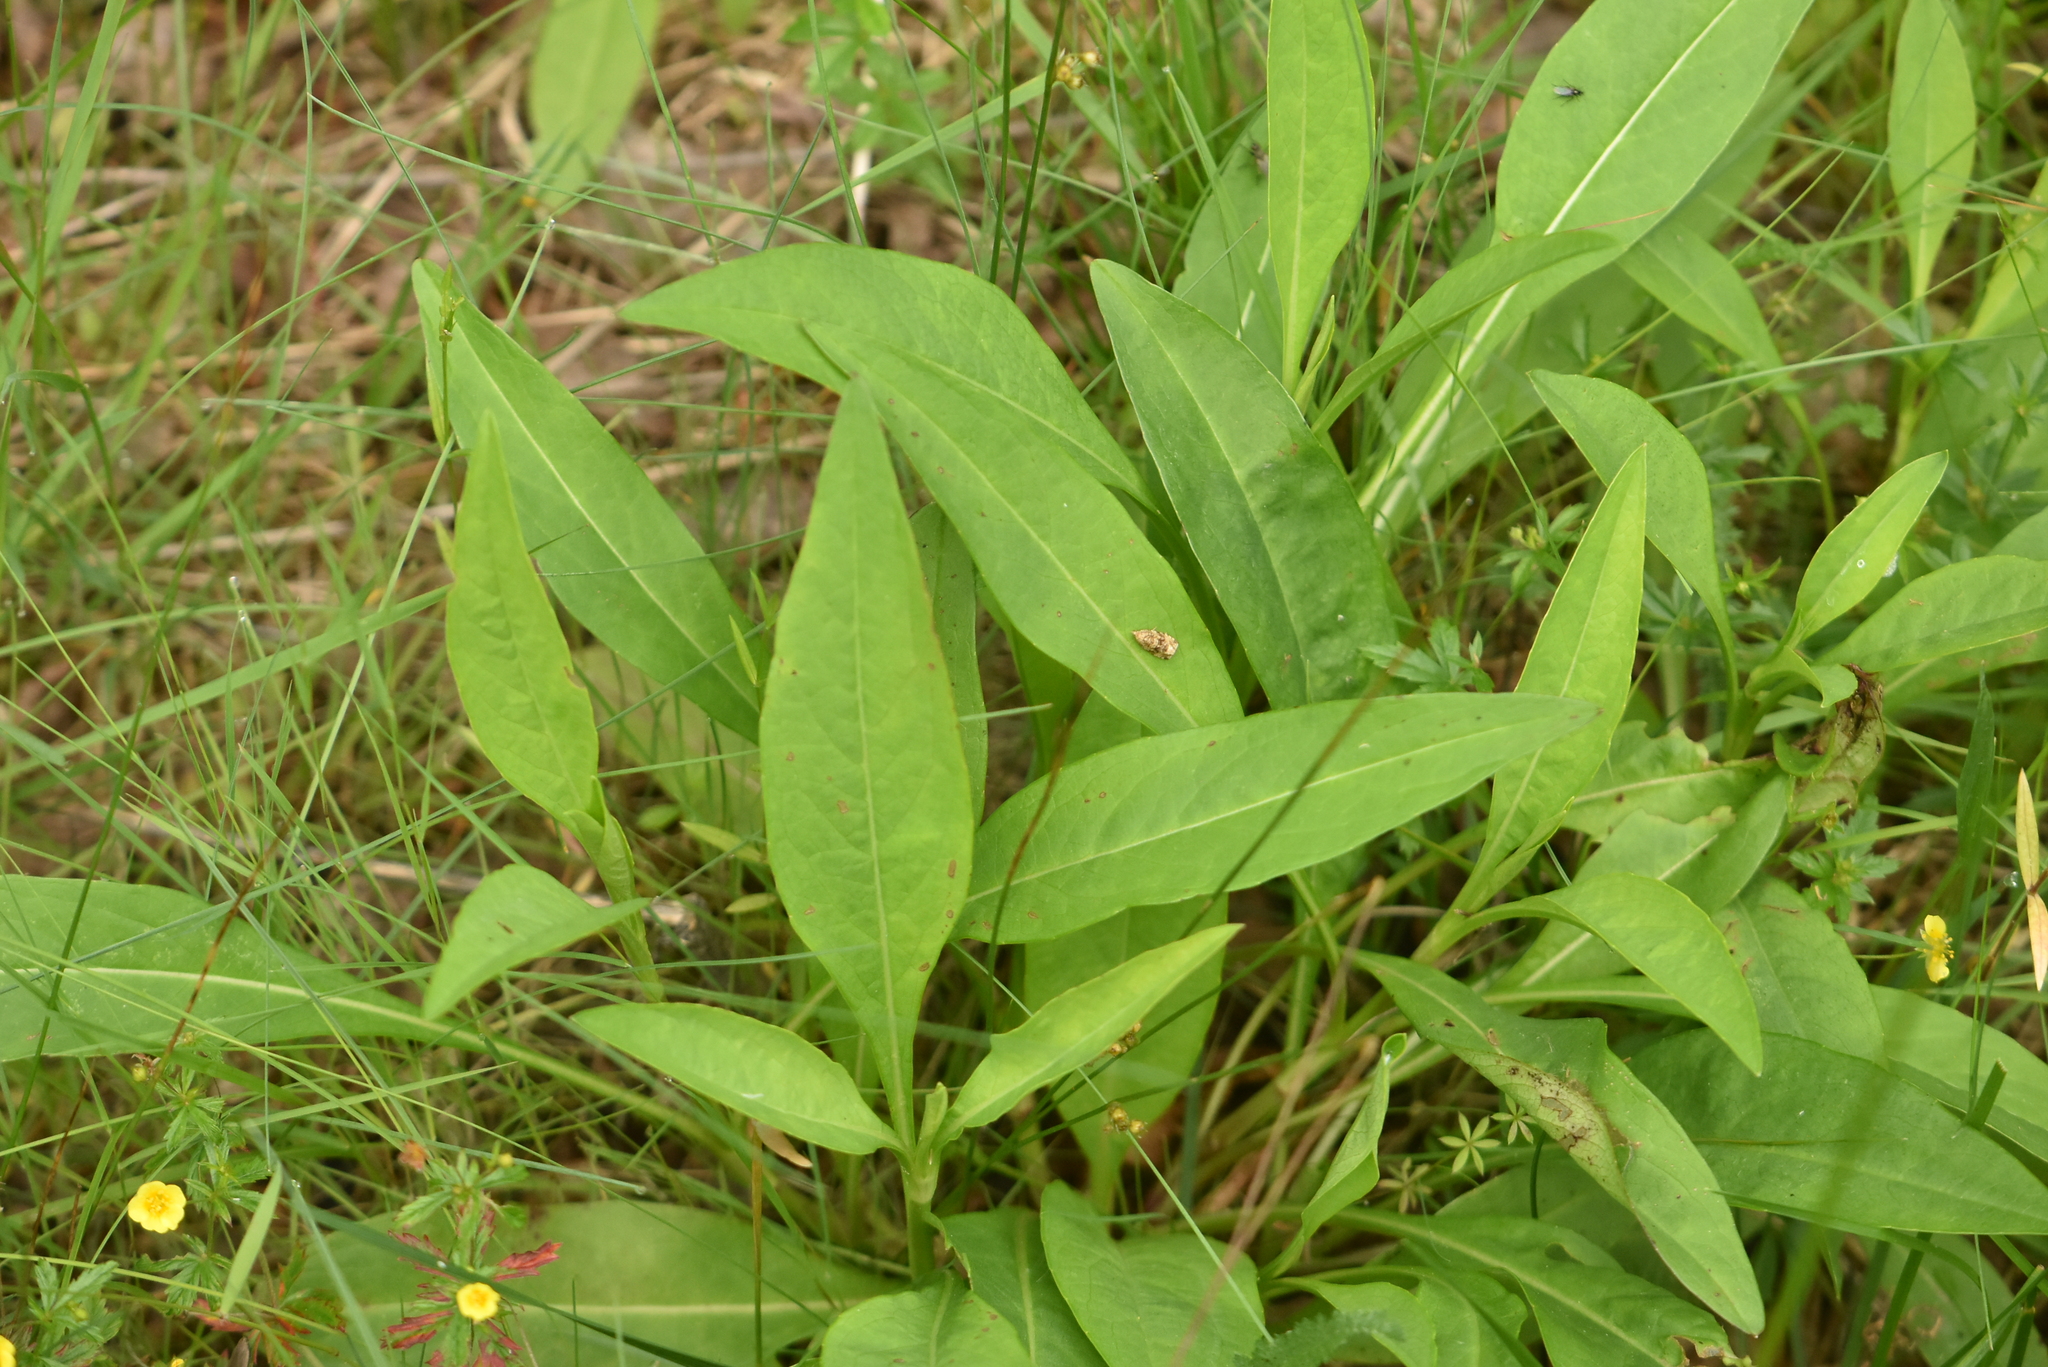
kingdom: Plantae
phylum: Tracheophyta
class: Magnoliopsida
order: Dipsacales
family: Caprifoliaceae
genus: Succisa
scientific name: Succisa pratensis
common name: Devil's-bit
